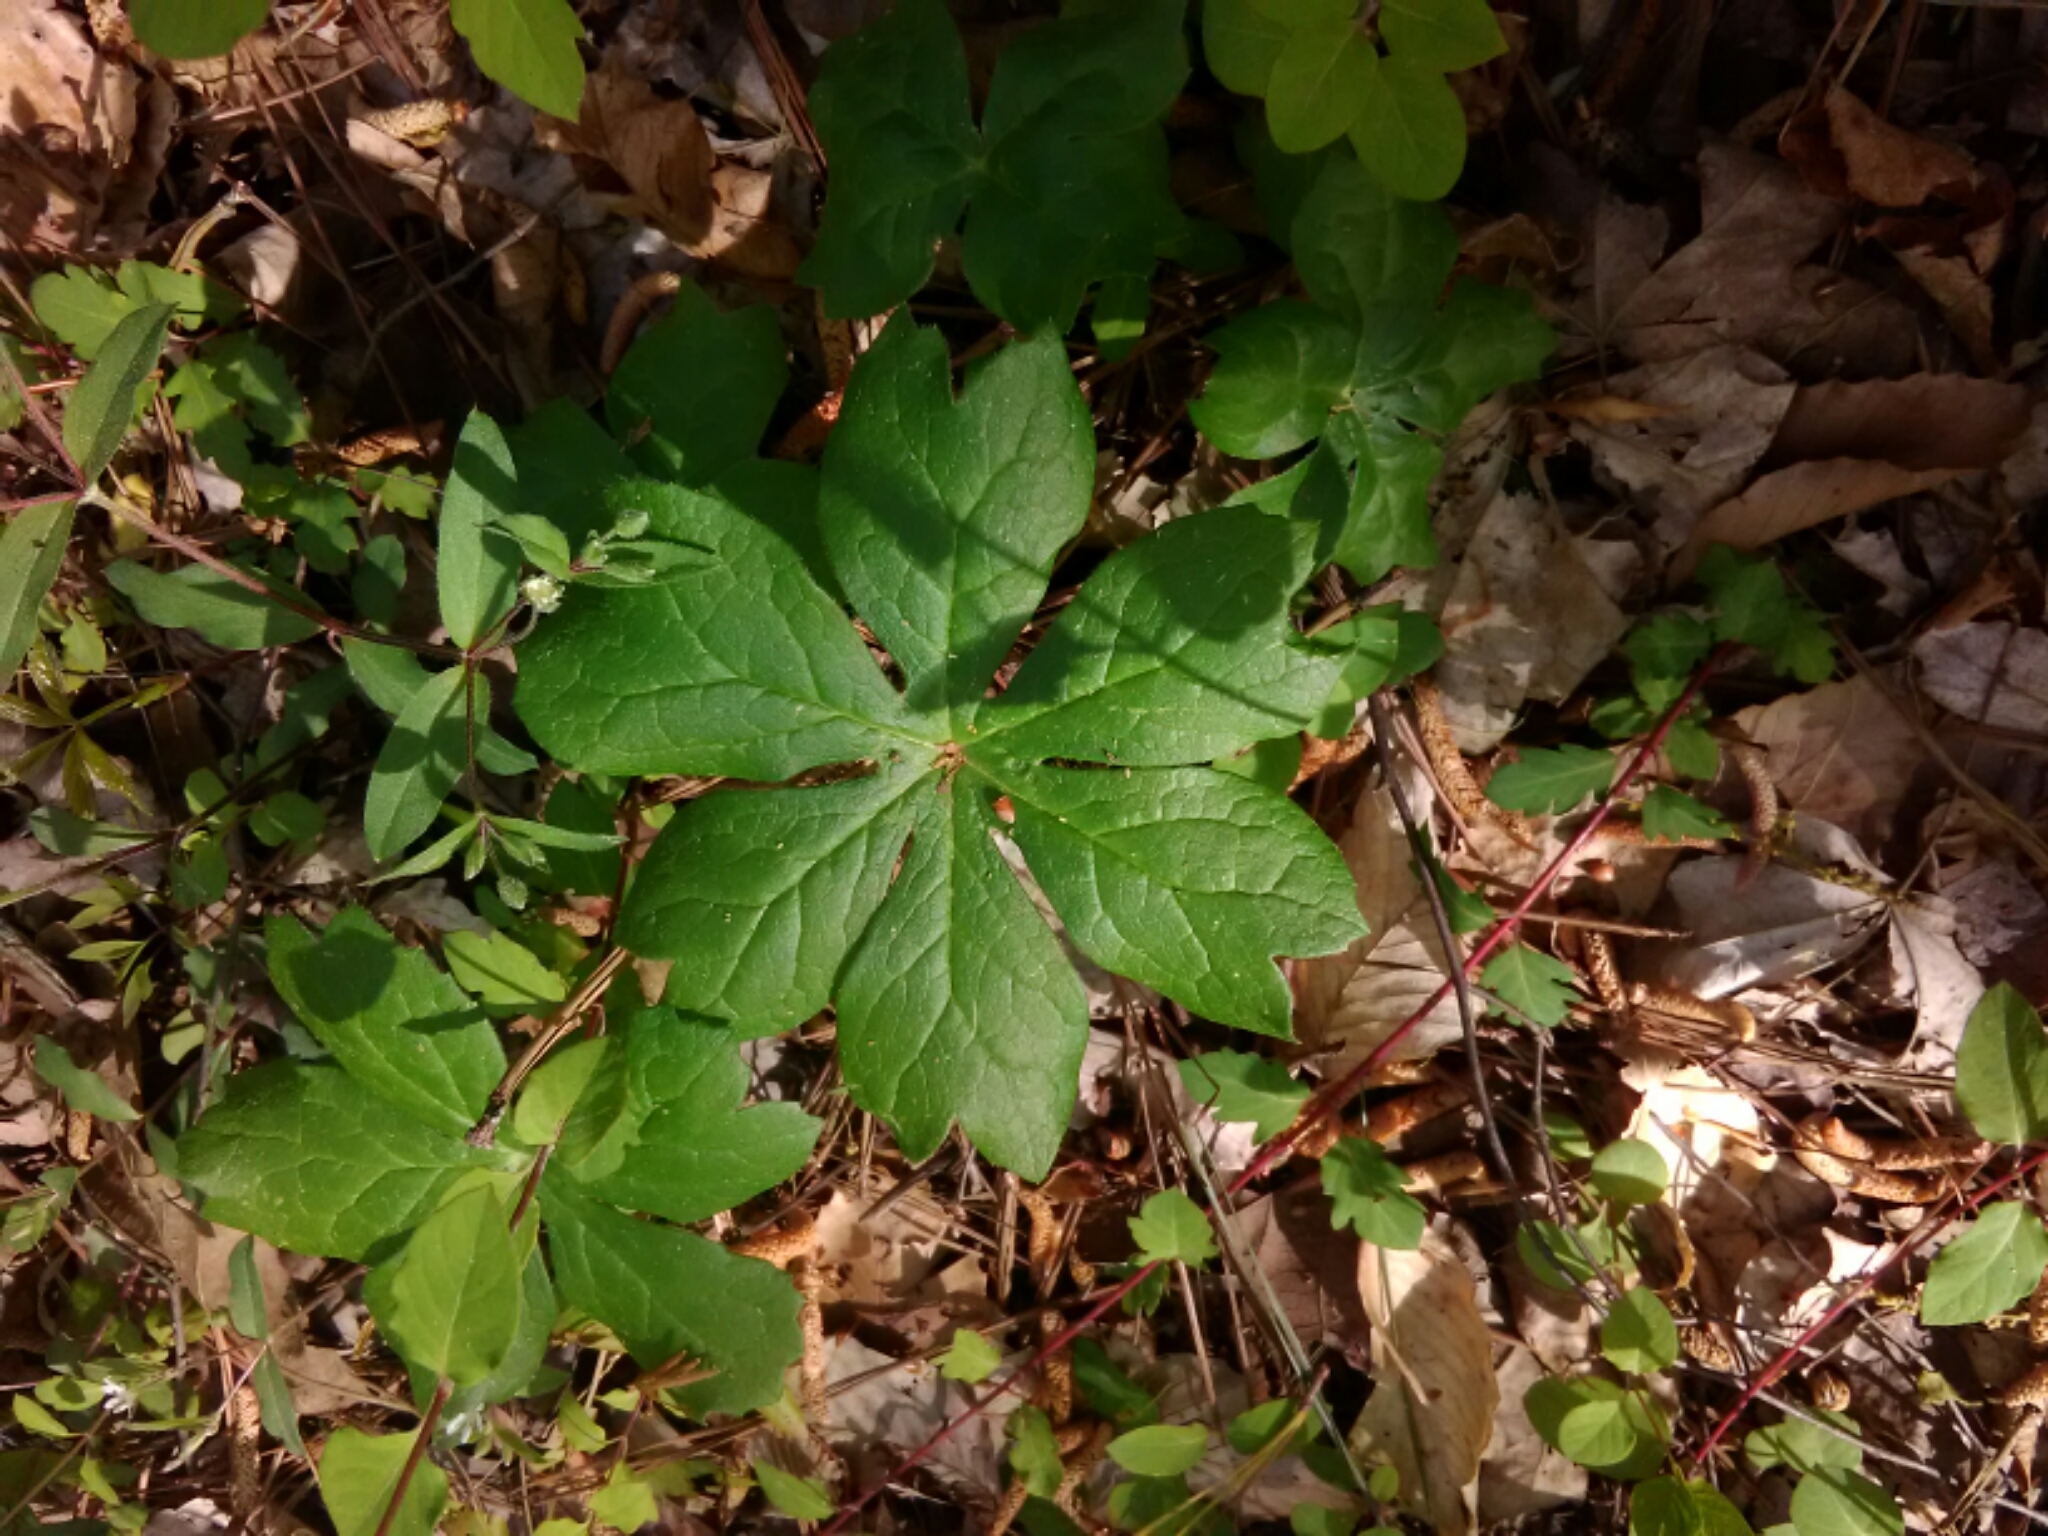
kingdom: Plantae
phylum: Tracheophyta
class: Magnoliopsida
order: Ranunculales
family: Berberidaceae
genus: Podophyllum
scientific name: Podophyllum peltatum
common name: Wild mandrake
